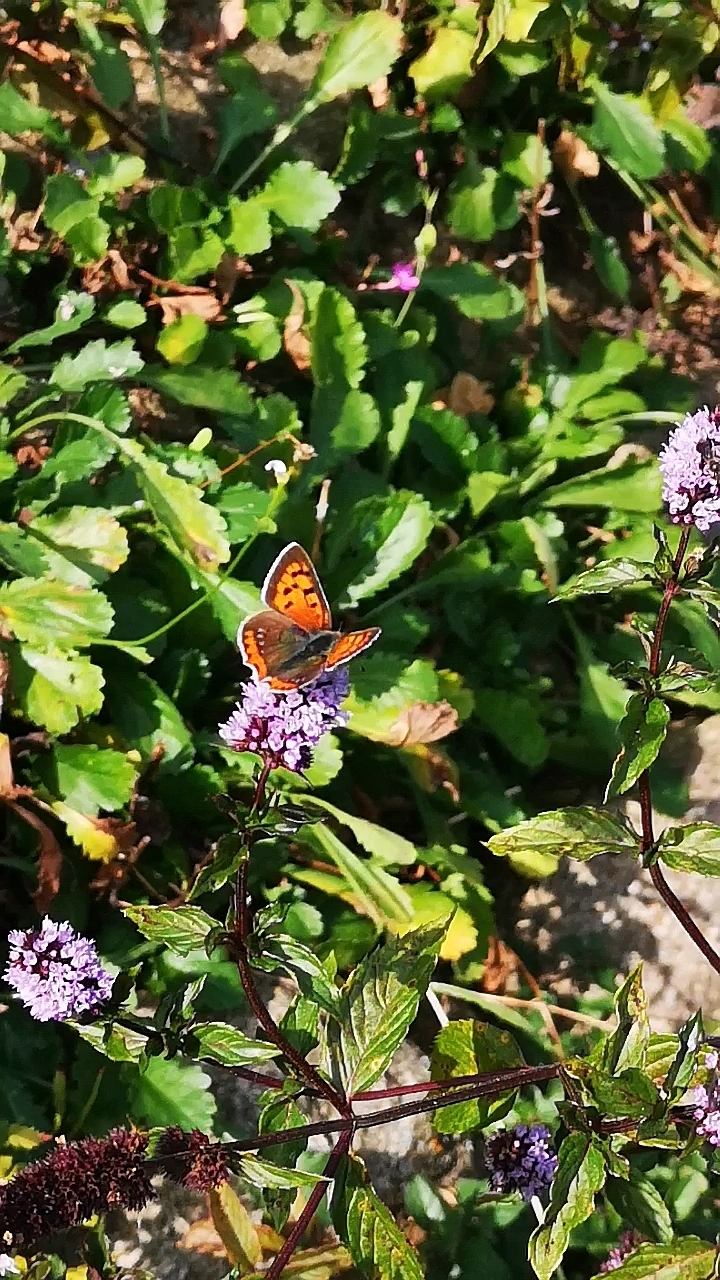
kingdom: Animalia
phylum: Arthropoda
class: Insecta
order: Lepidoptera
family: Lycaenidae
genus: Lycaena
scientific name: Lycaena phlaeas
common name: Small copper
